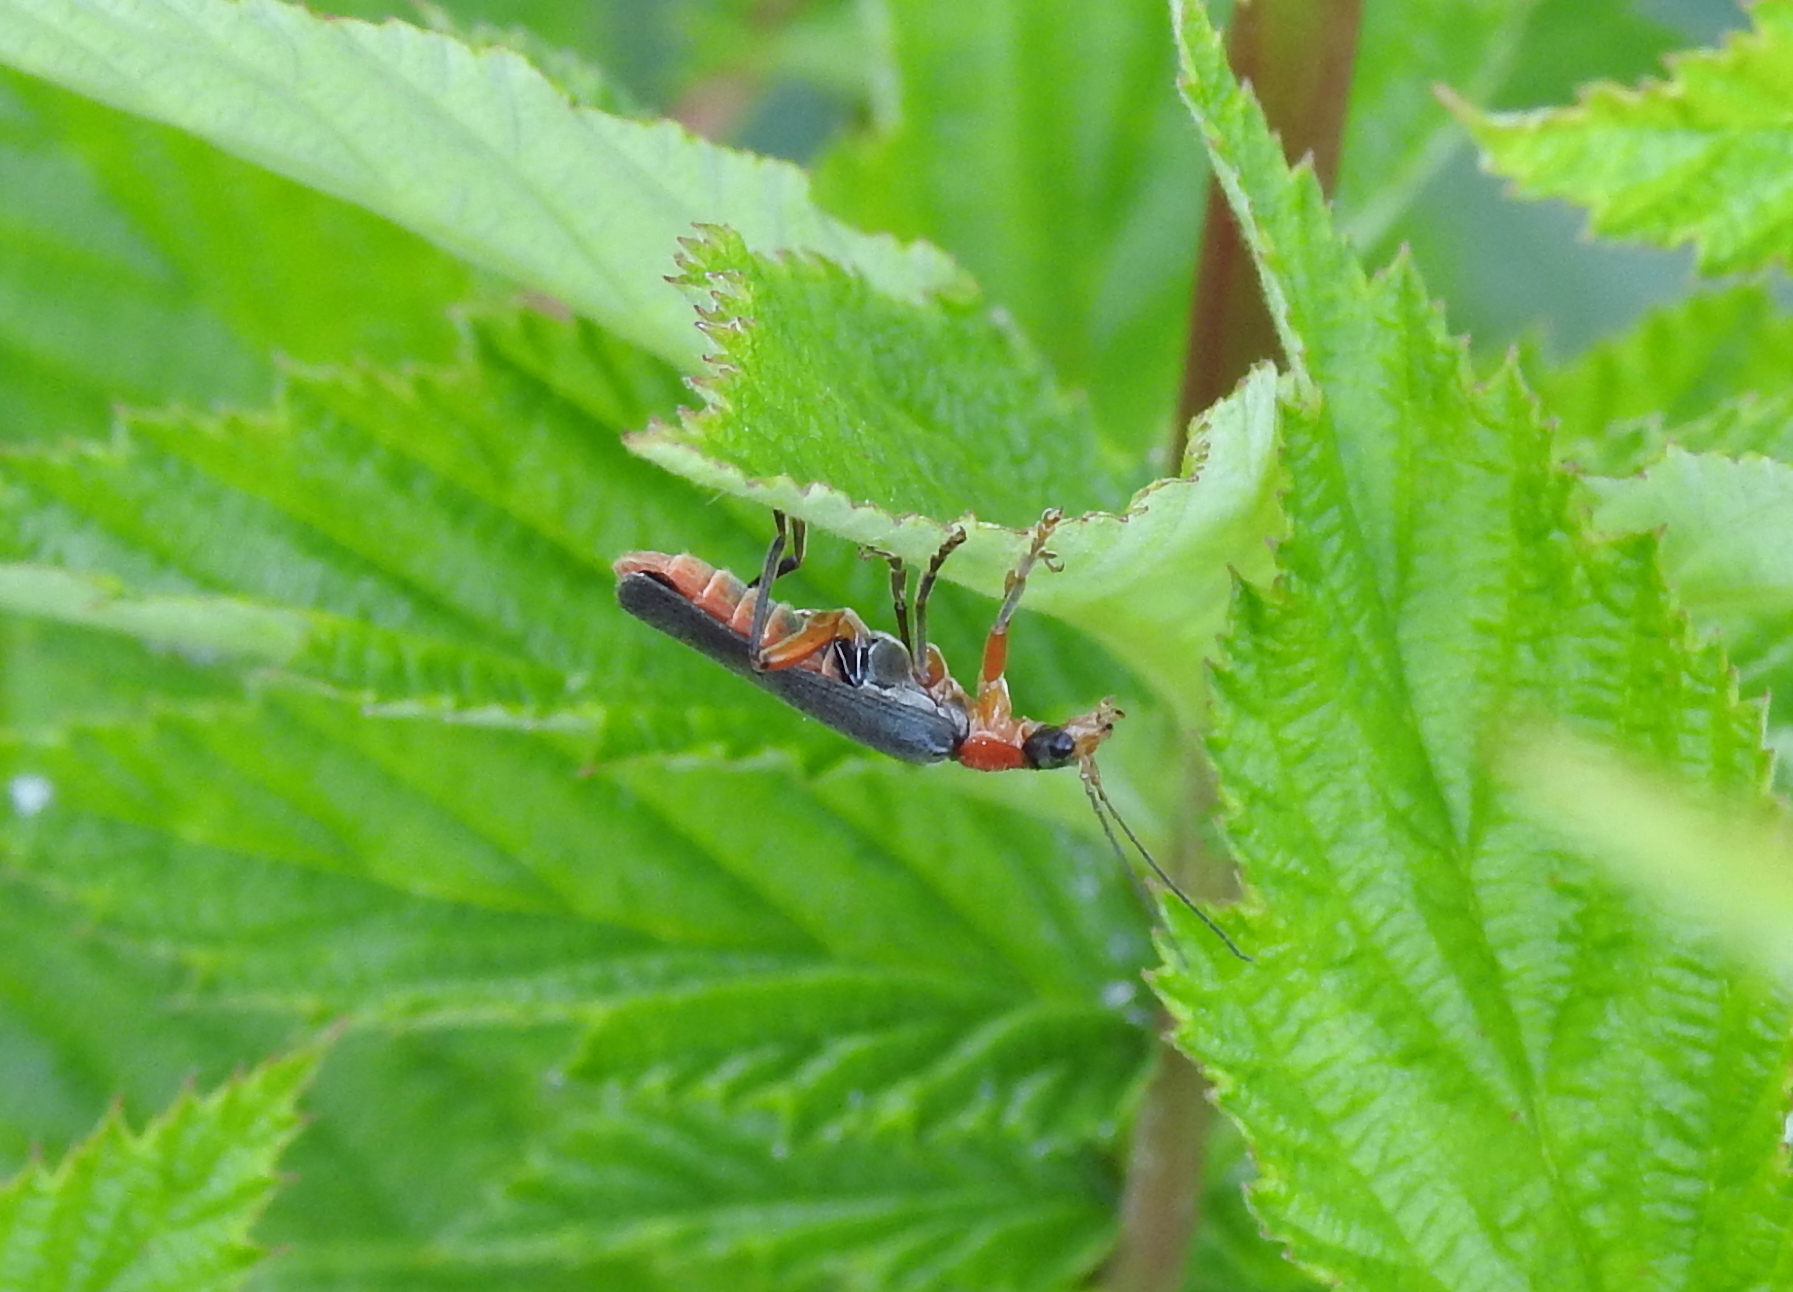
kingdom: Animalia
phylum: Arthropoda
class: Insecta
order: Coleoptera
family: Cantharidae
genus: Cantharis
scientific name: Cantharis pellucida
